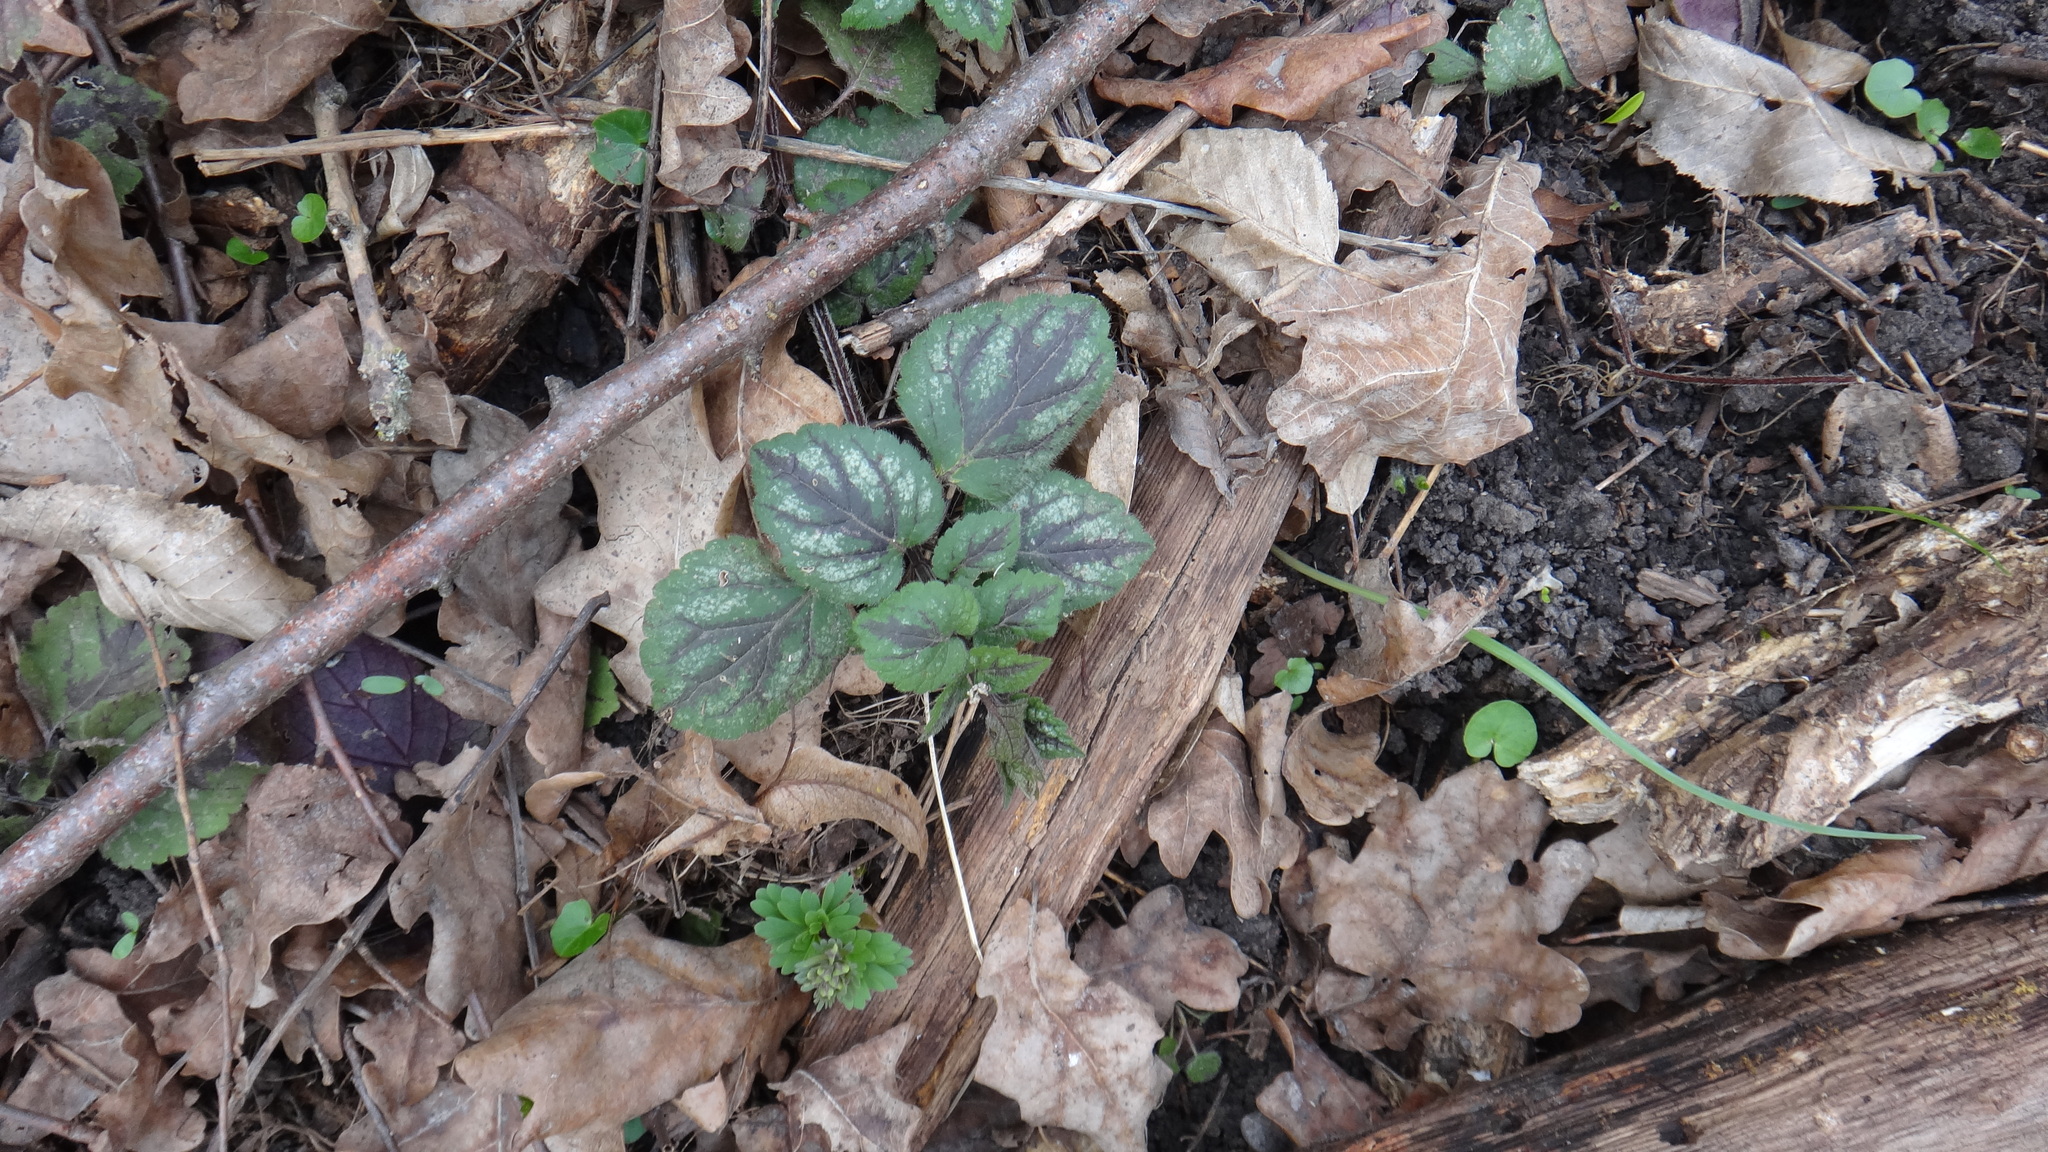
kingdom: Plantae
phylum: Tracheophyta
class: Magnoliopsida
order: Lamiales
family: Lamiaceae
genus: Lamium
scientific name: Lamium galeobdolon
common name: Yellow archangel
